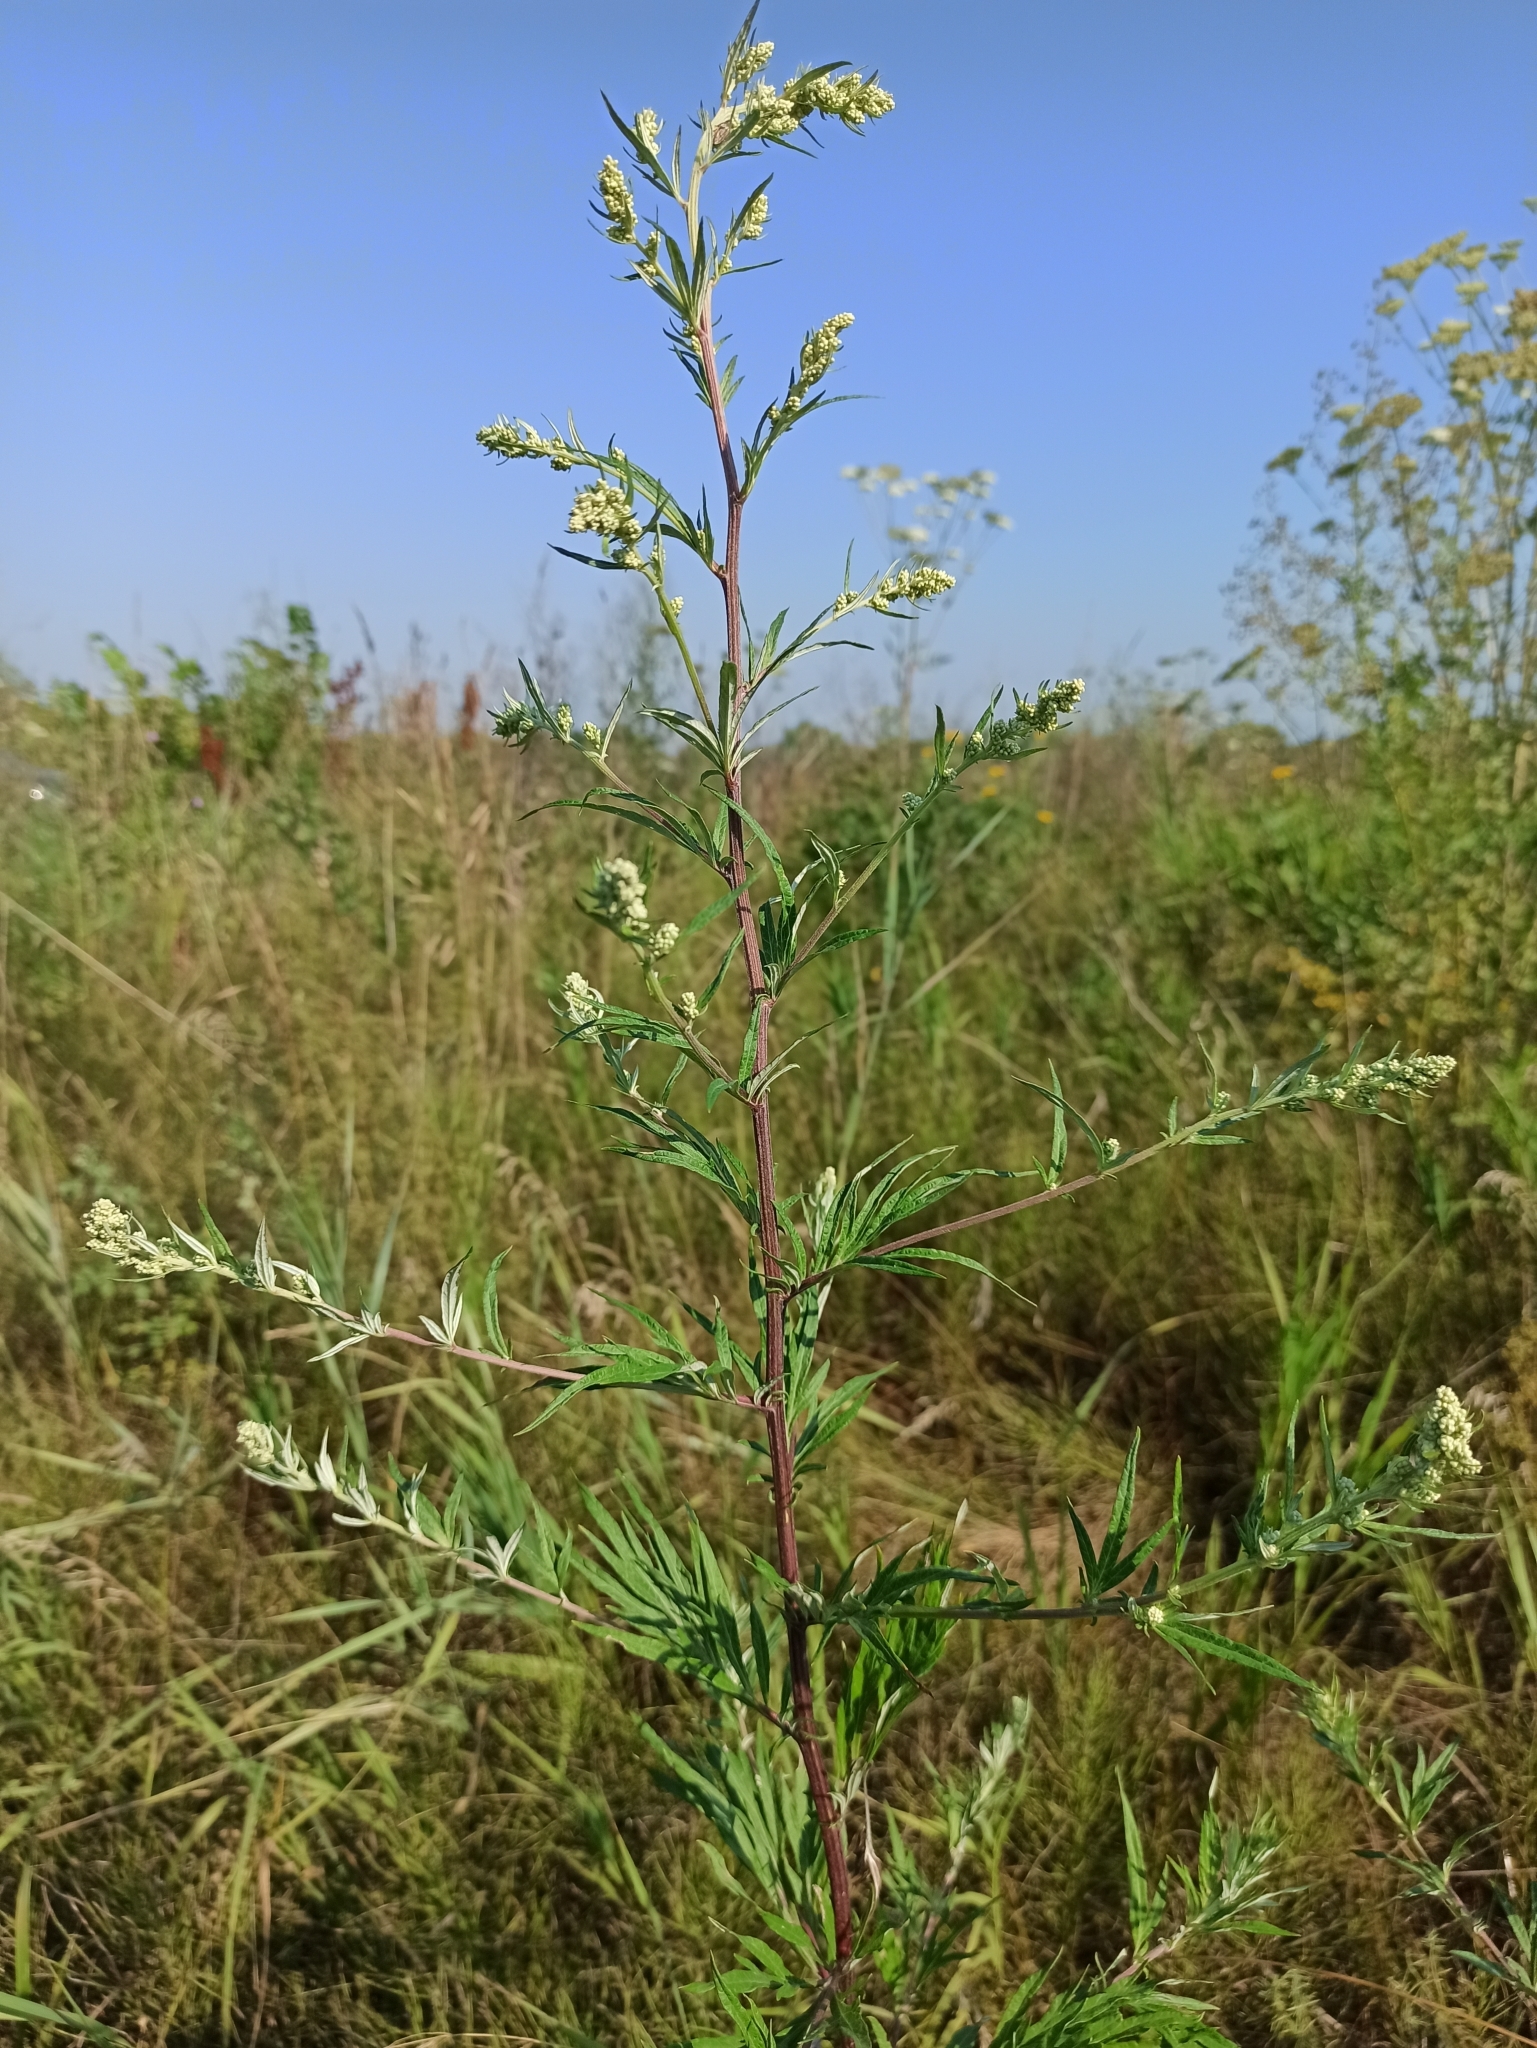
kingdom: Plantae
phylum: Tracheophyta
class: Magnoliopsida
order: Asterales
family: Asteraceae
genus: Artemisia
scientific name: Artemisia vulgaris
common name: Mugwort
